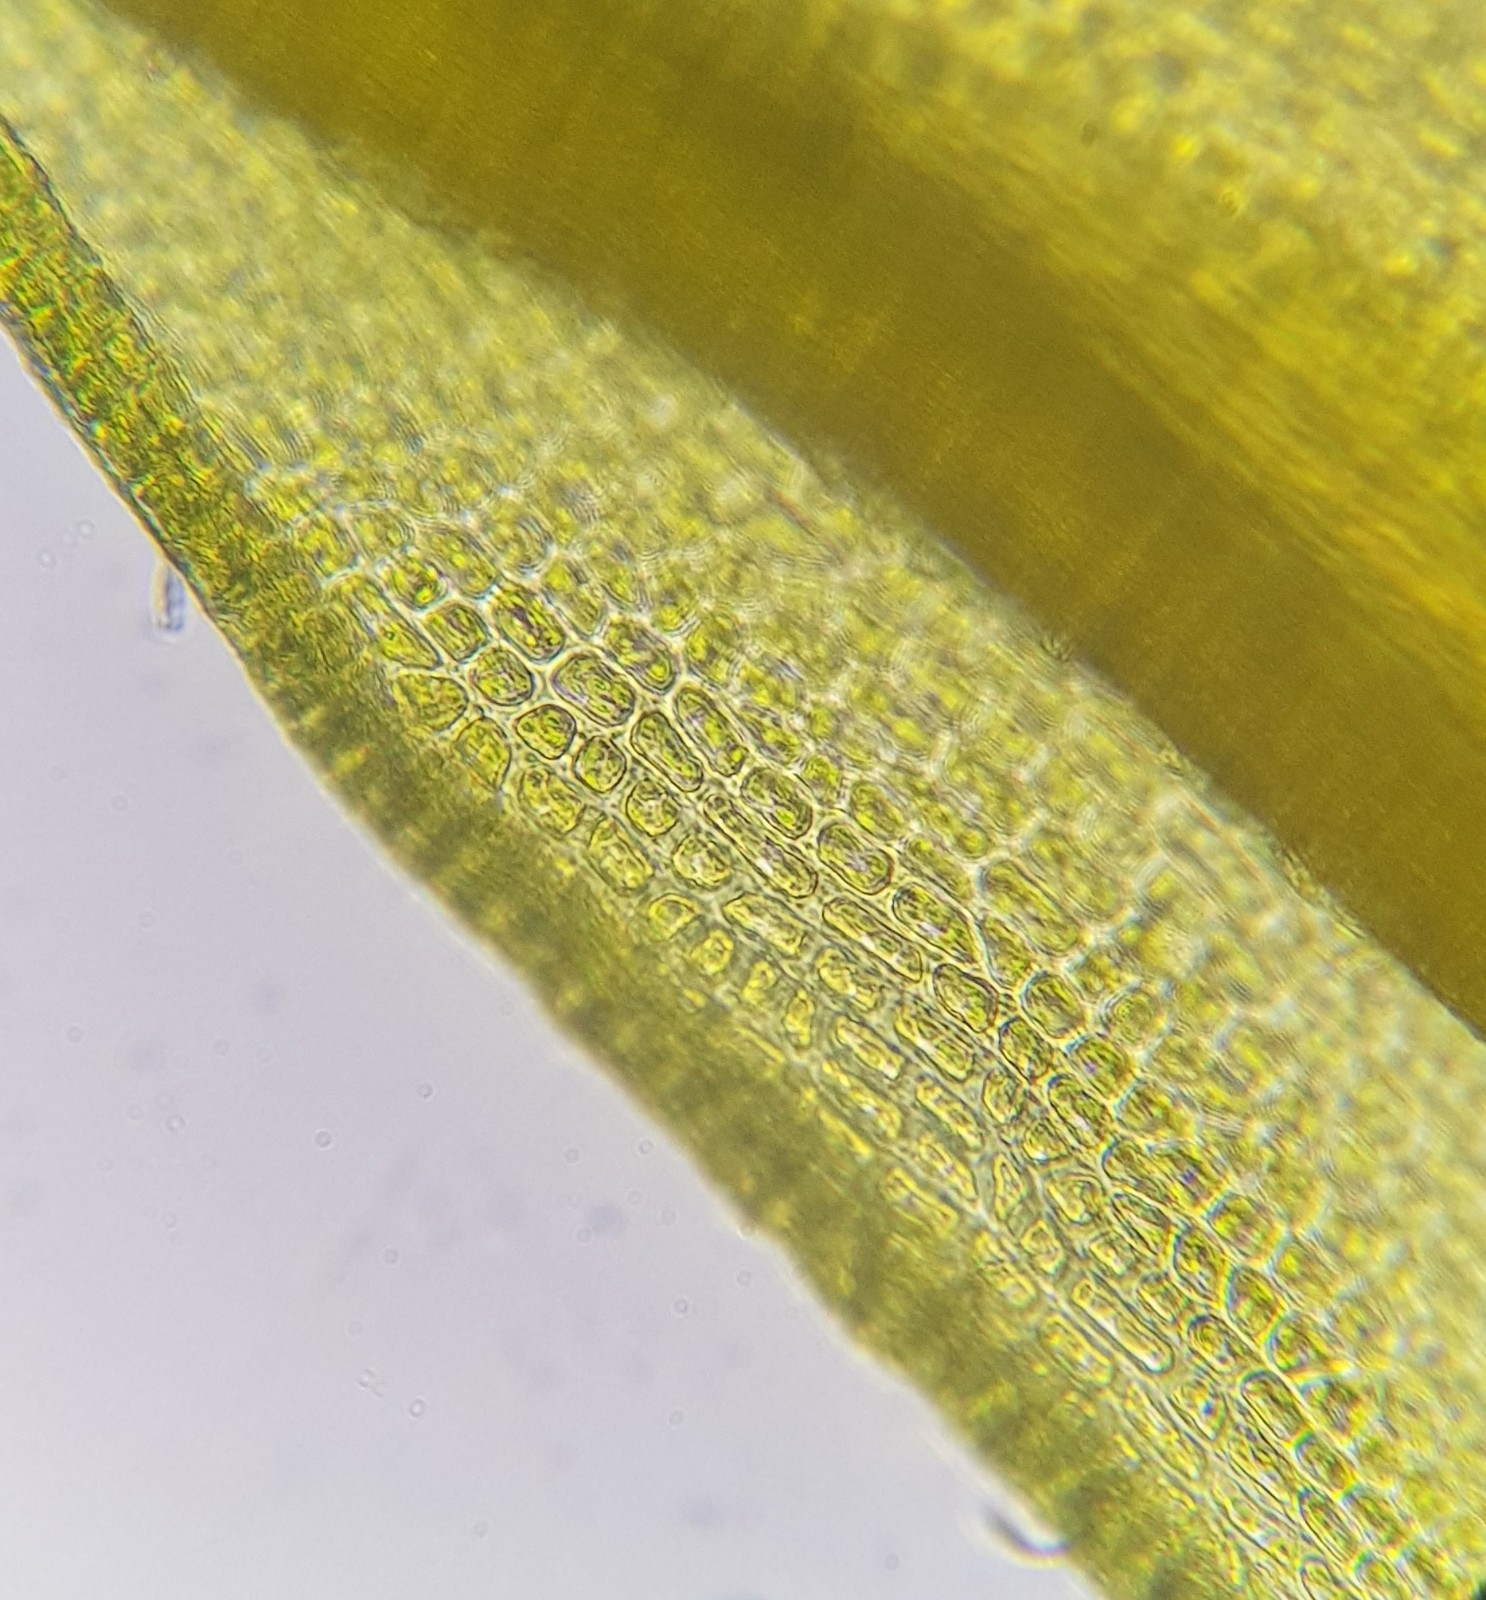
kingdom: Plantae
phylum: Bryophyta
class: Bryopsida
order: Dicranales
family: Amphidiaceae
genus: Amphidium
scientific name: Amphidium mougeotii
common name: Mougeot's yoke moss
